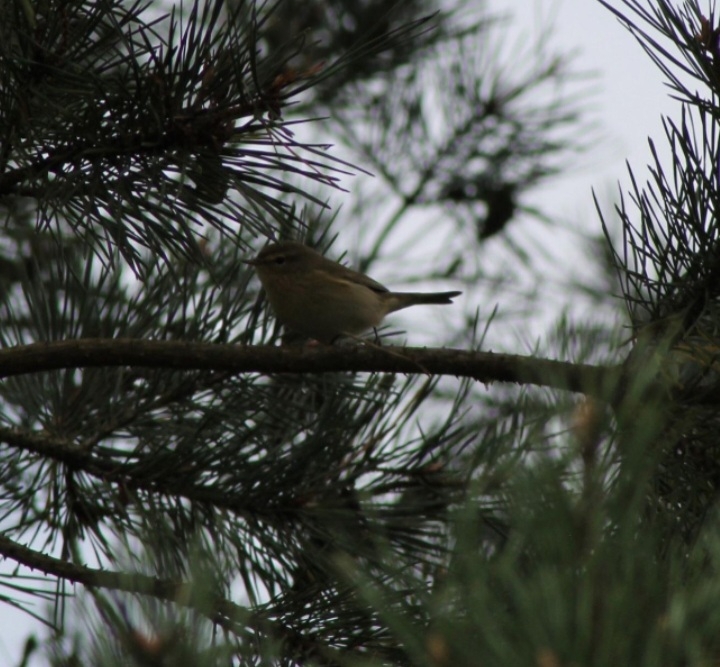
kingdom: Animalia
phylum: Chordata
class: Aves
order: Passeriformes
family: Phylloscopidae
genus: Phylloscopus
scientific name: Phylloscopus collybita
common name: Common chiffchaff
